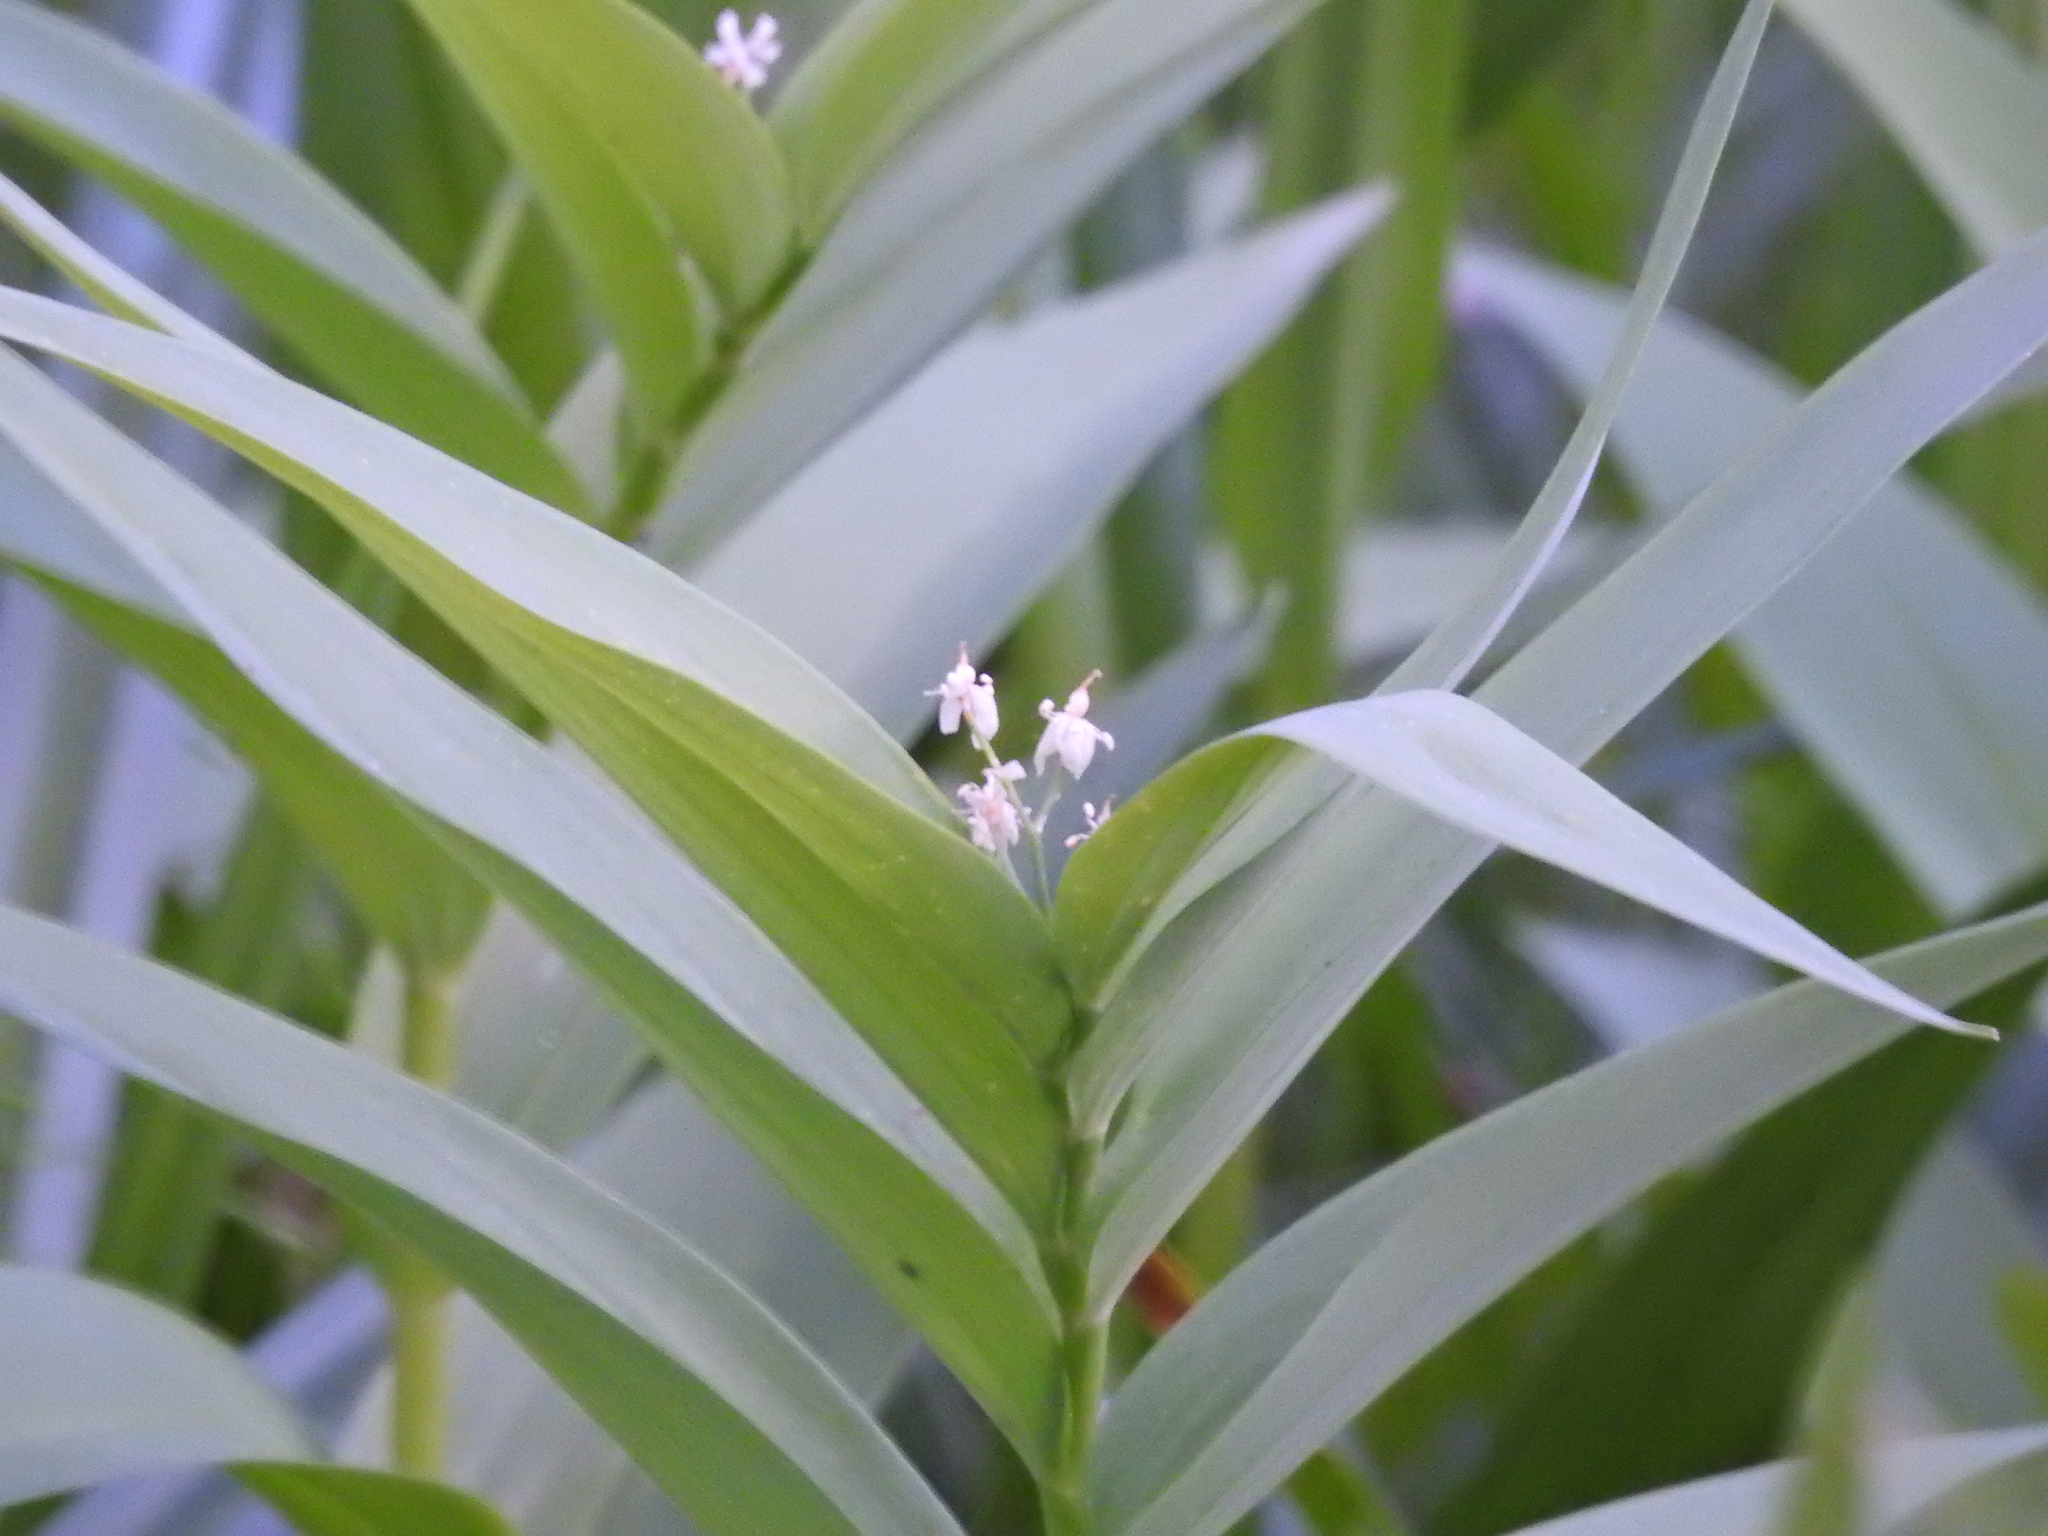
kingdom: Plantae
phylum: Tracheophyta
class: Liliopsida
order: Asparagales
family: Asparagaceae
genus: Maianthemum
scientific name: Maianthemum stellatum
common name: Little false solomon's seal
